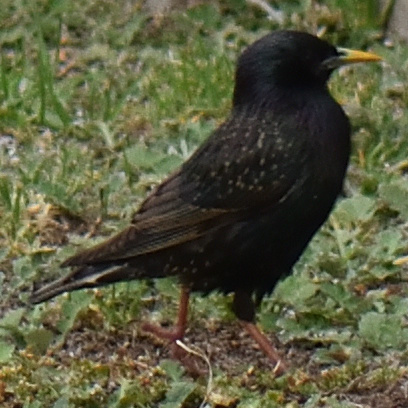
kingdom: Animalia
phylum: Chordata
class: Aves
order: Passeriformes
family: Sturnidae
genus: Sturnus
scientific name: Sturnus vulgaris
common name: Common starling
